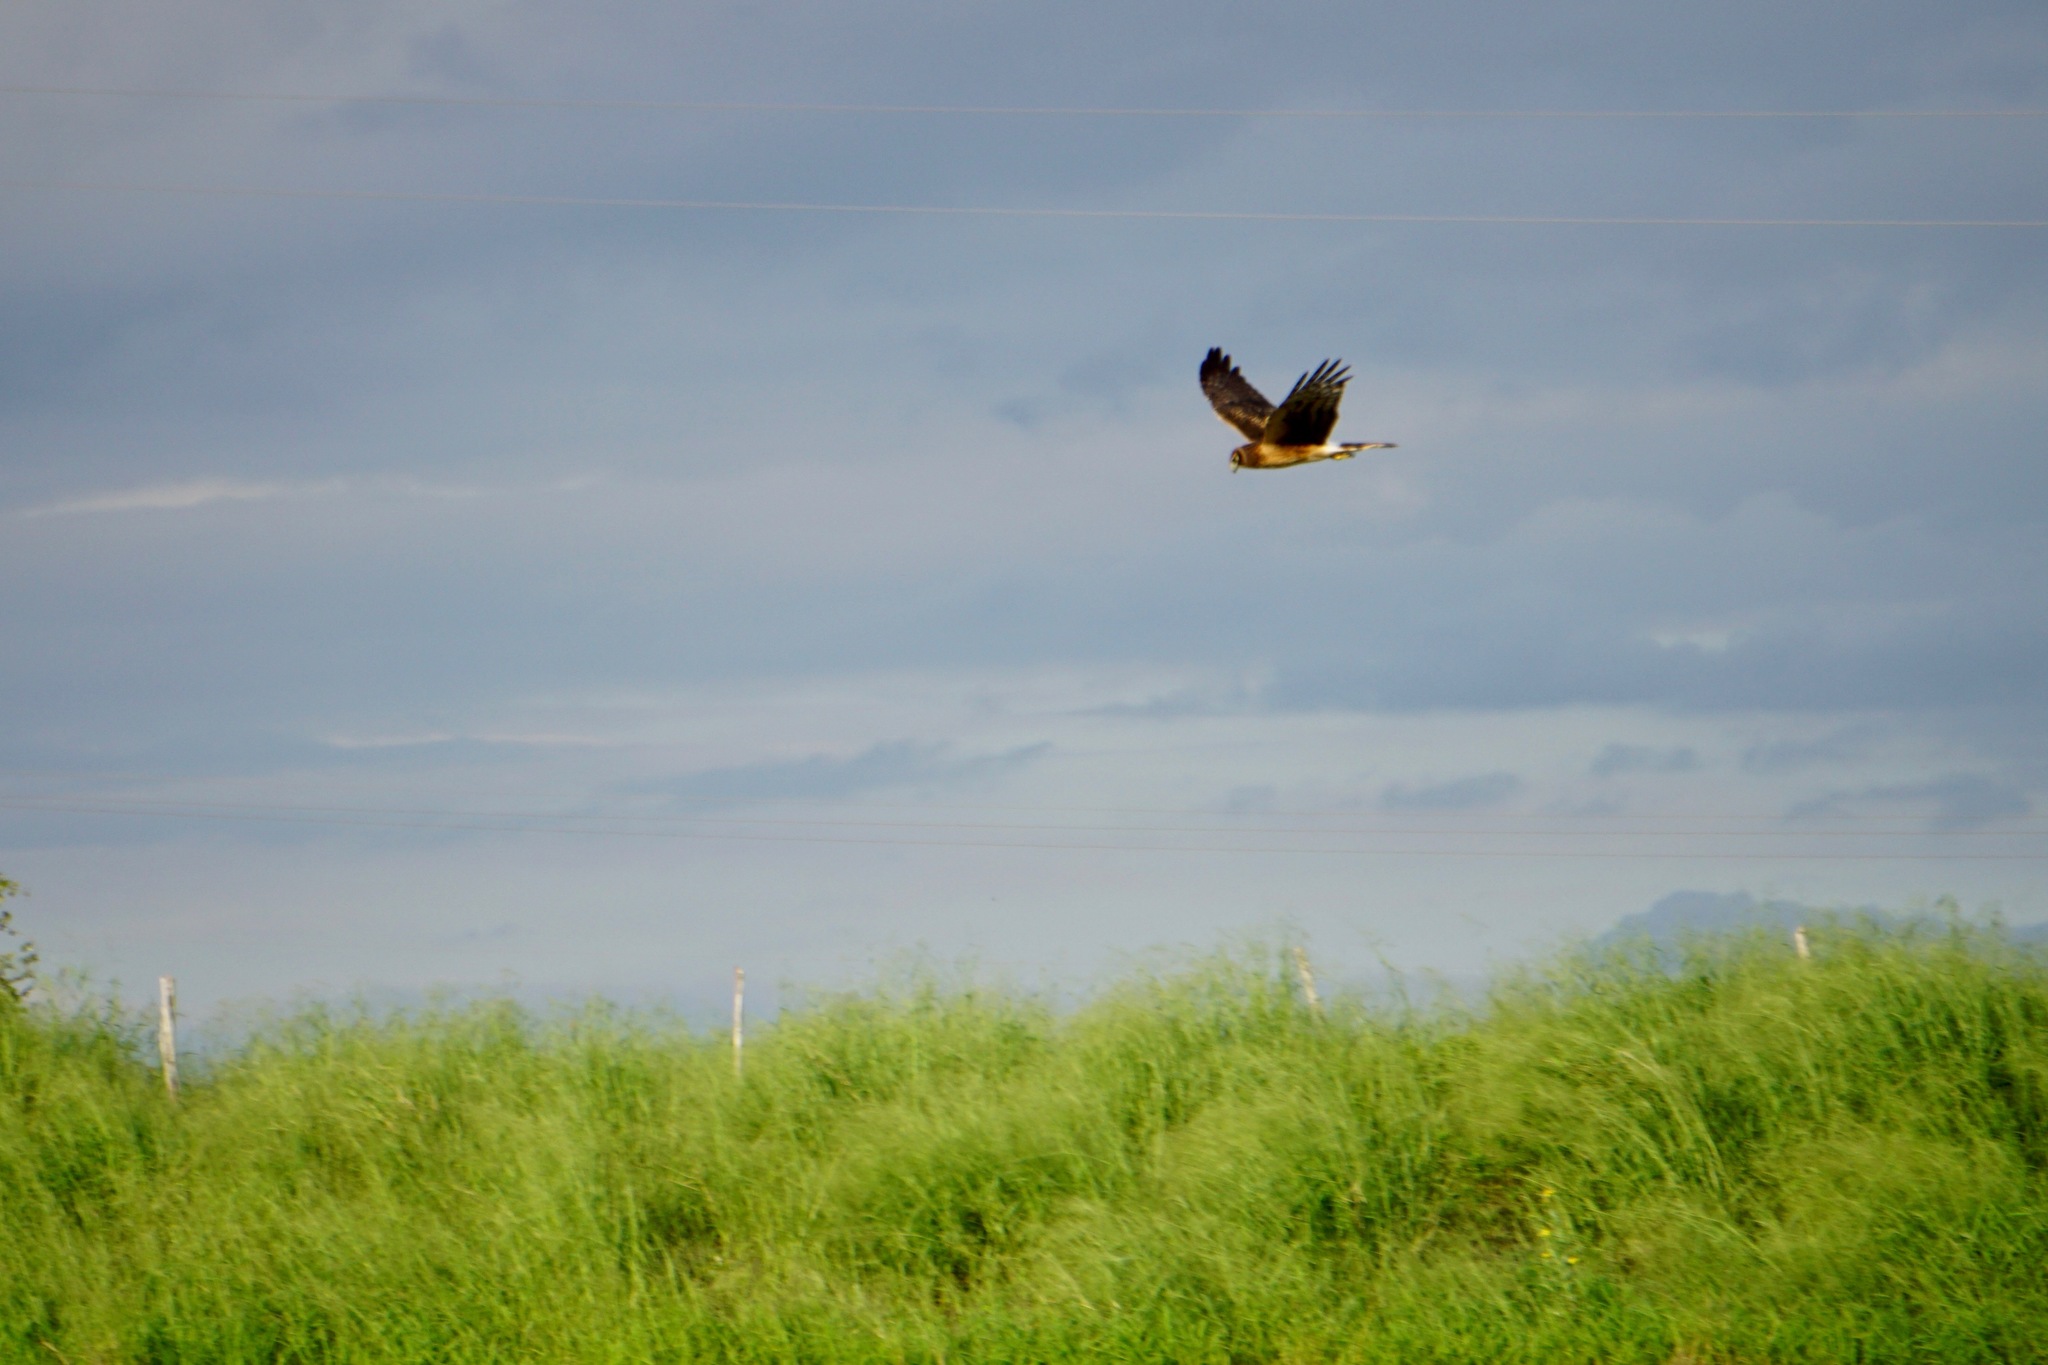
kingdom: Animalia
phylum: Chordata
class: Aves
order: Accipitriformes
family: Accipitridae
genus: Circus
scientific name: Circus cyaneus
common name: Hen harrier
